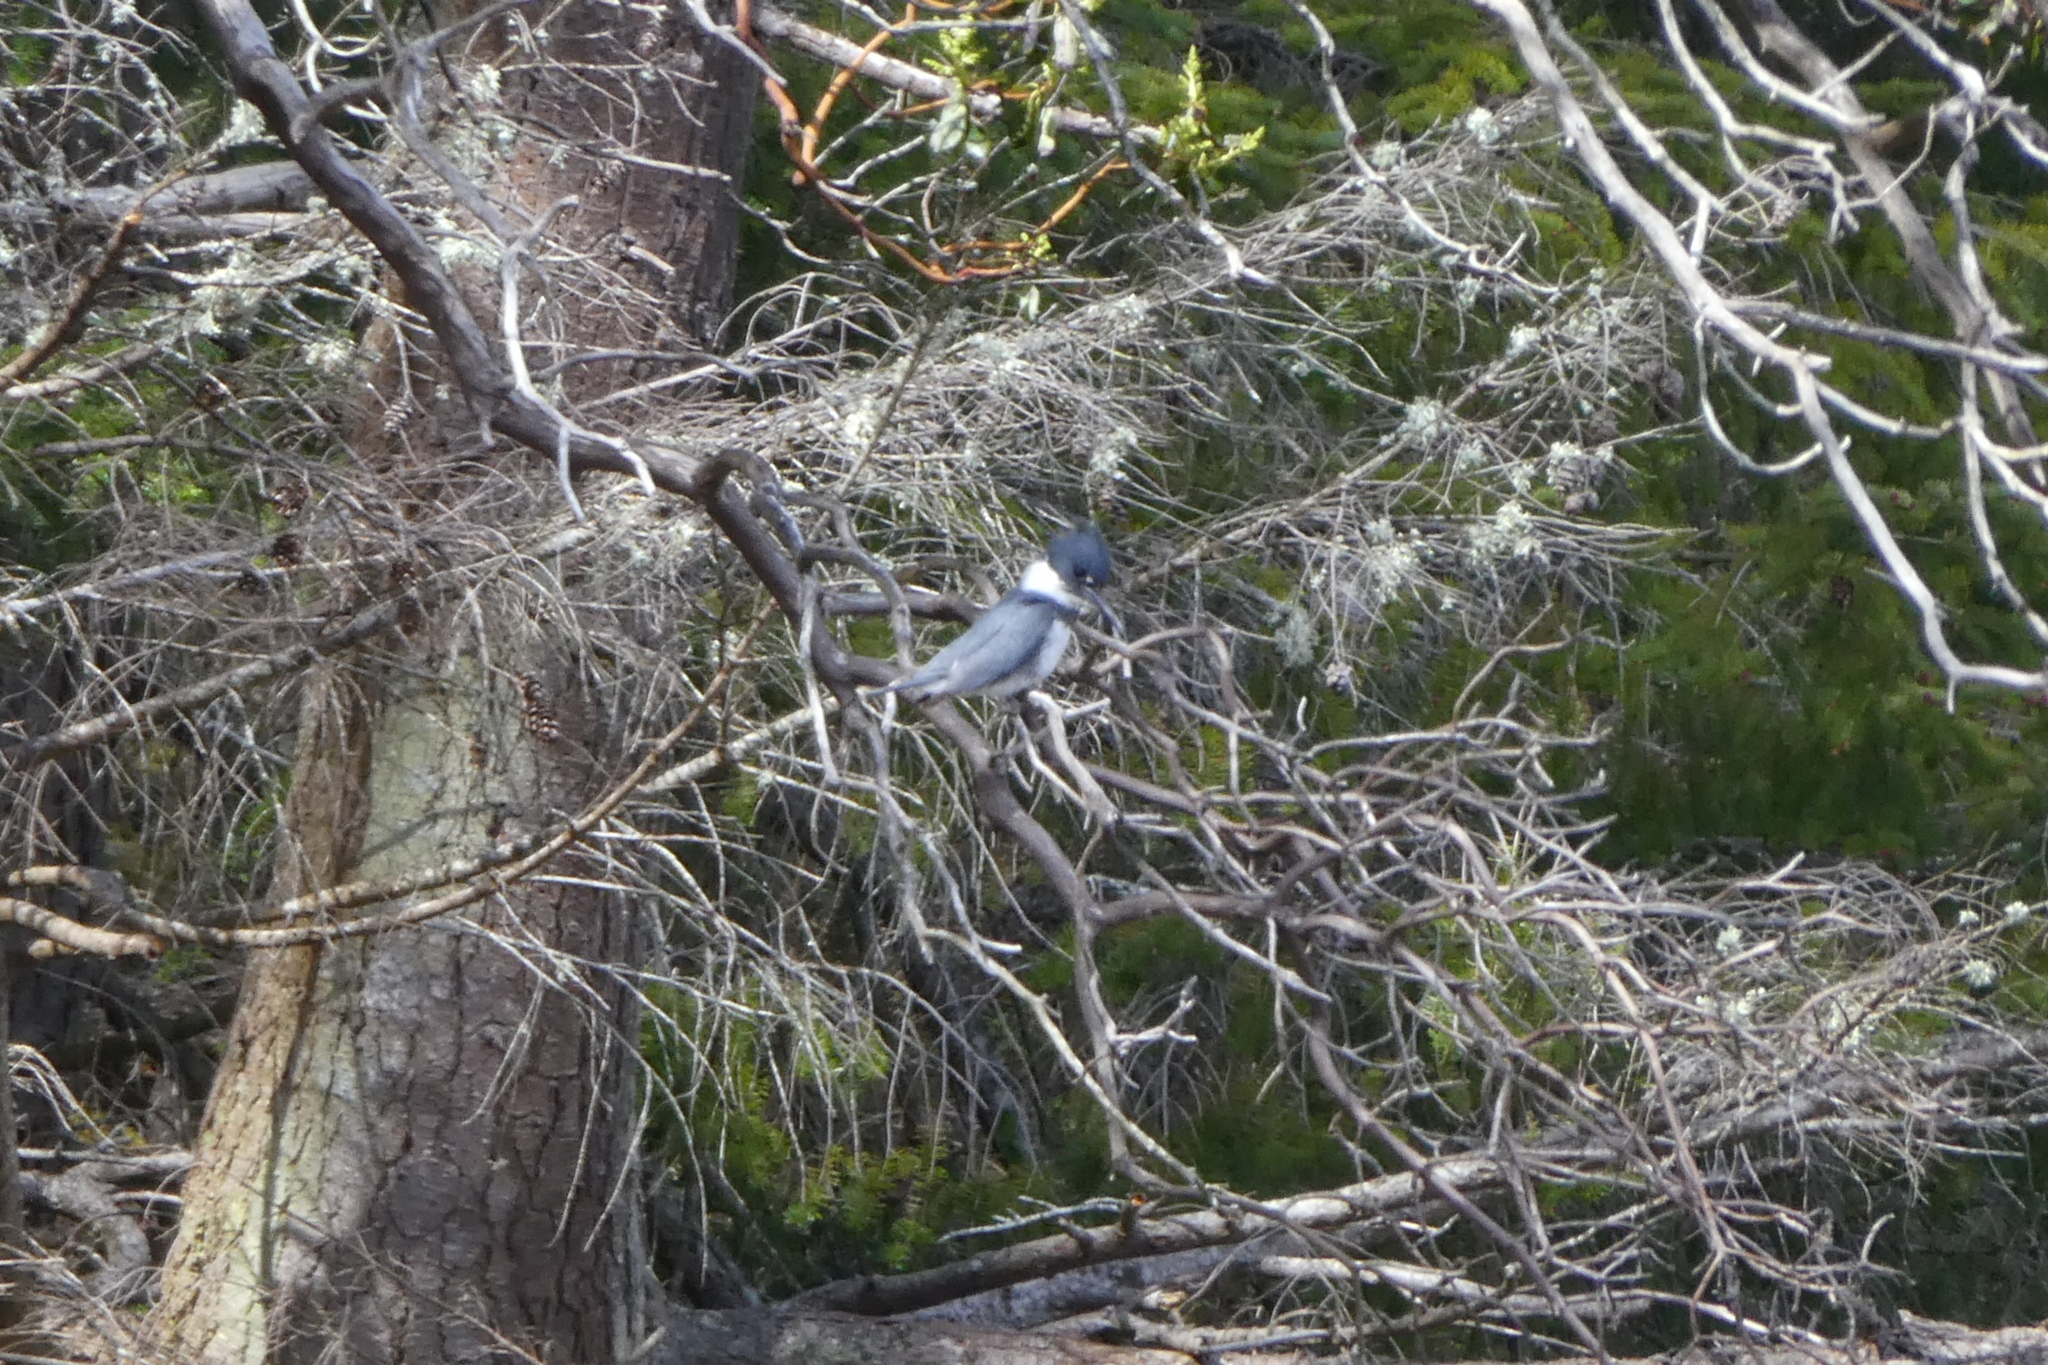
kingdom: Animalia
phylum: Chordata
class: Aves
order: Coraciiformes
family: Alcedinidae
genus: Megaceryle
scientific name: Megaceryle alcyon
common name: Belted kingfisher
